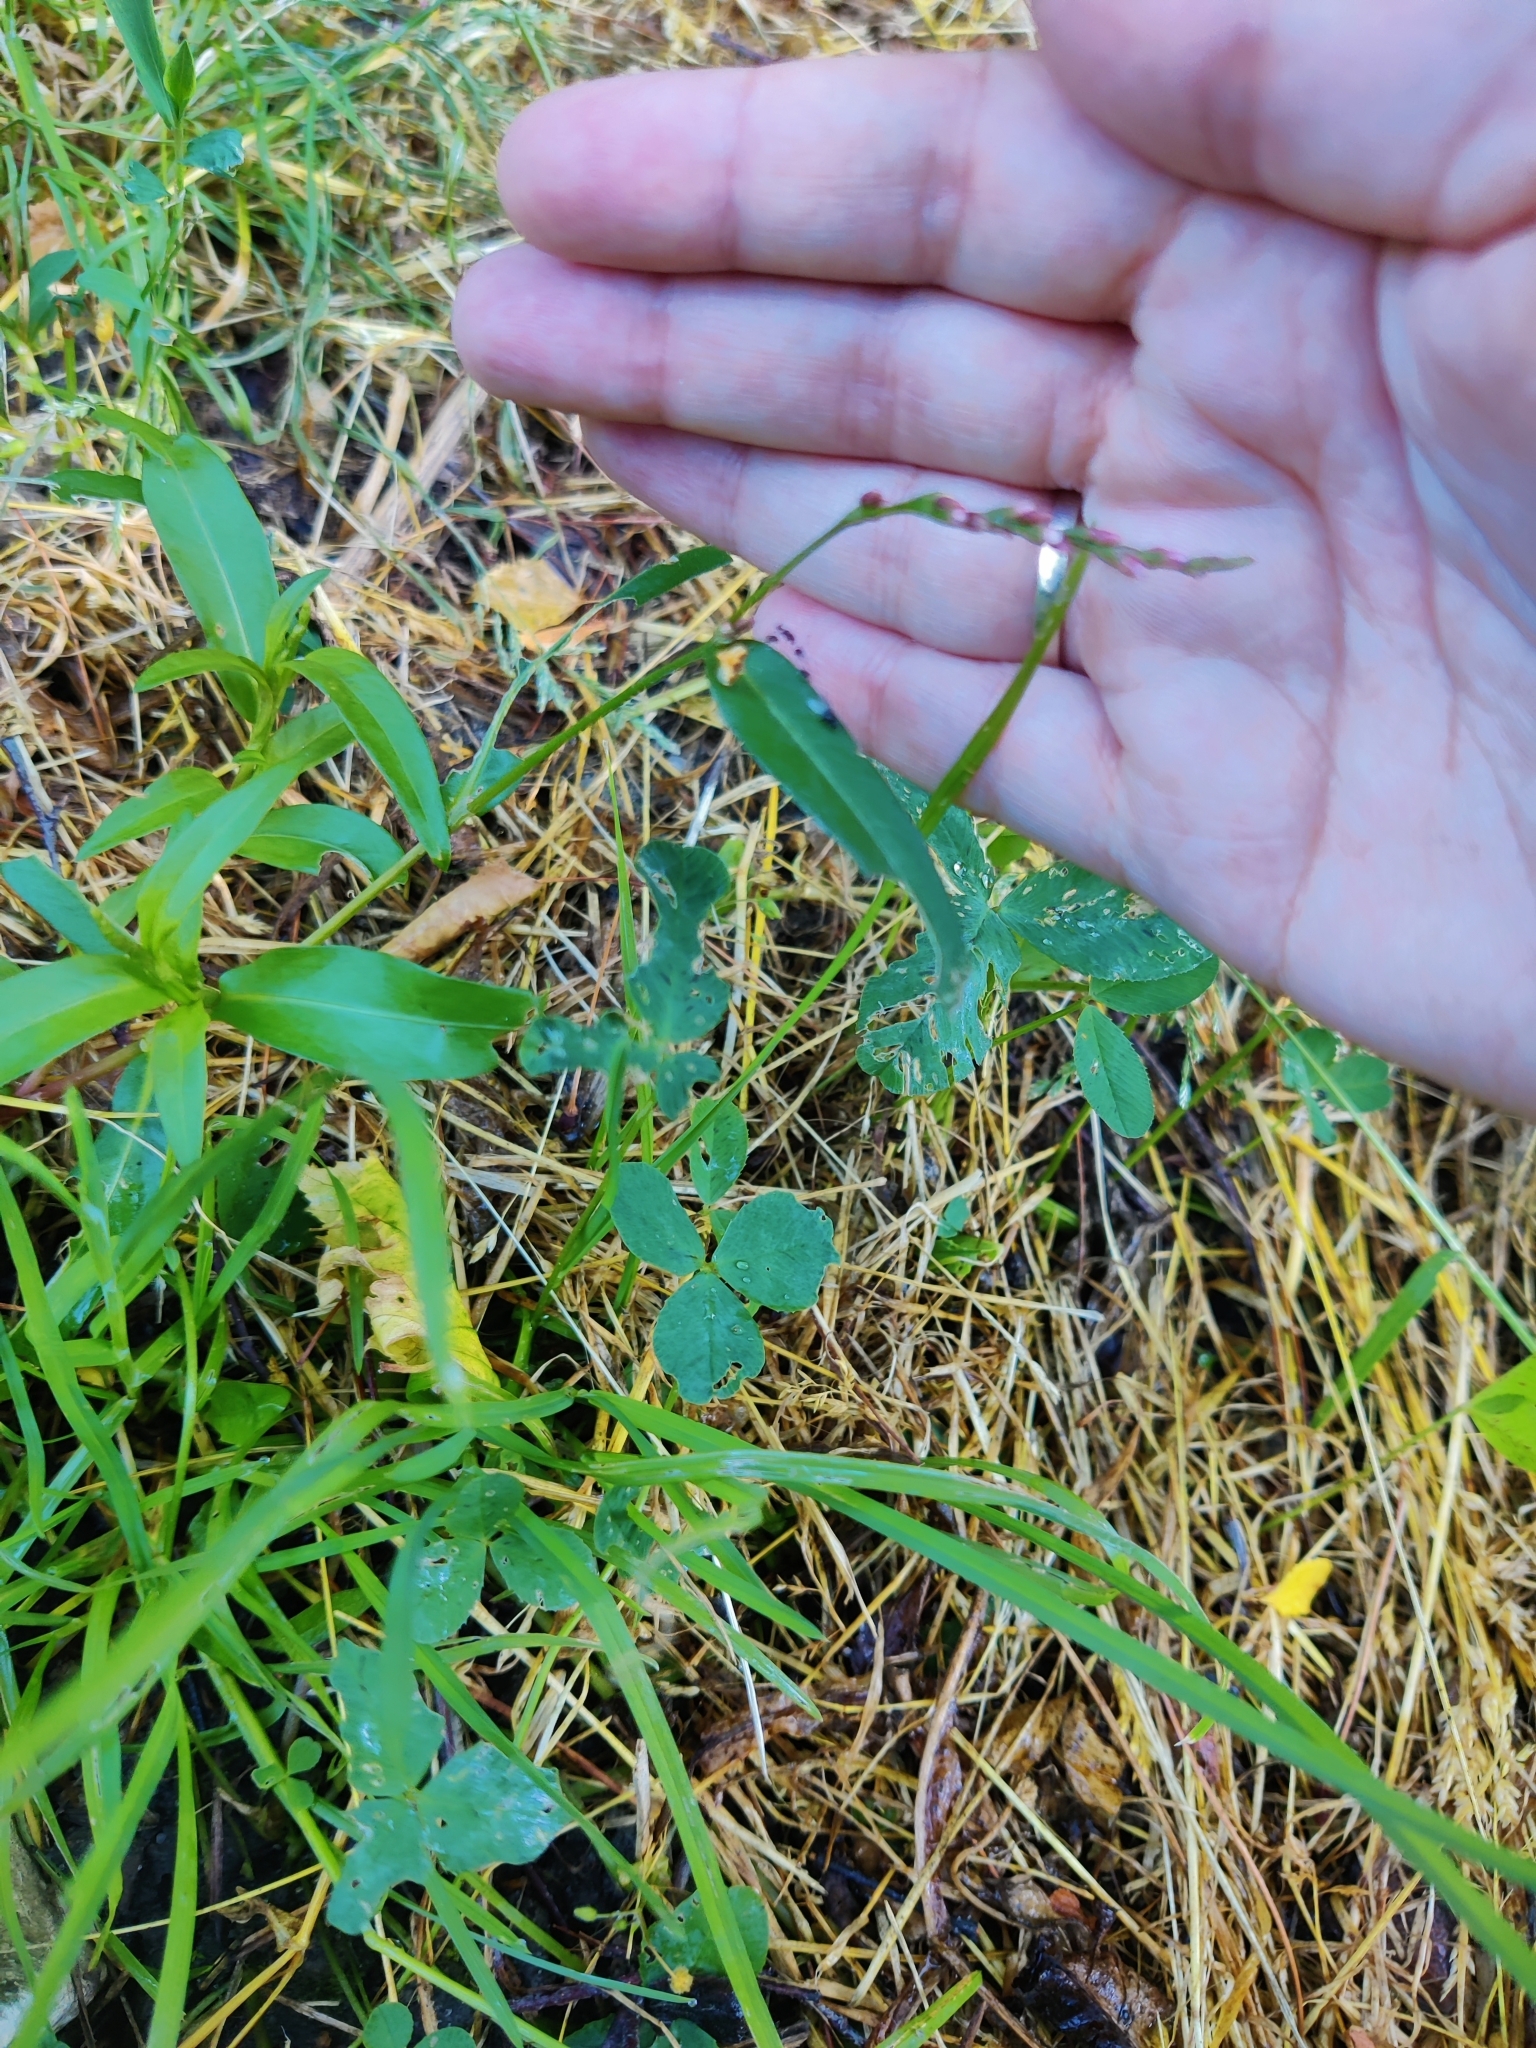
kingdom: Plantae
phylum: Tracheophyta
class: Magnoliopsida
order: Caryophyllales
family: Polygonaceae
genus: Persicaria
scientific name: Persicaria minor
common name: Small water-pepper
